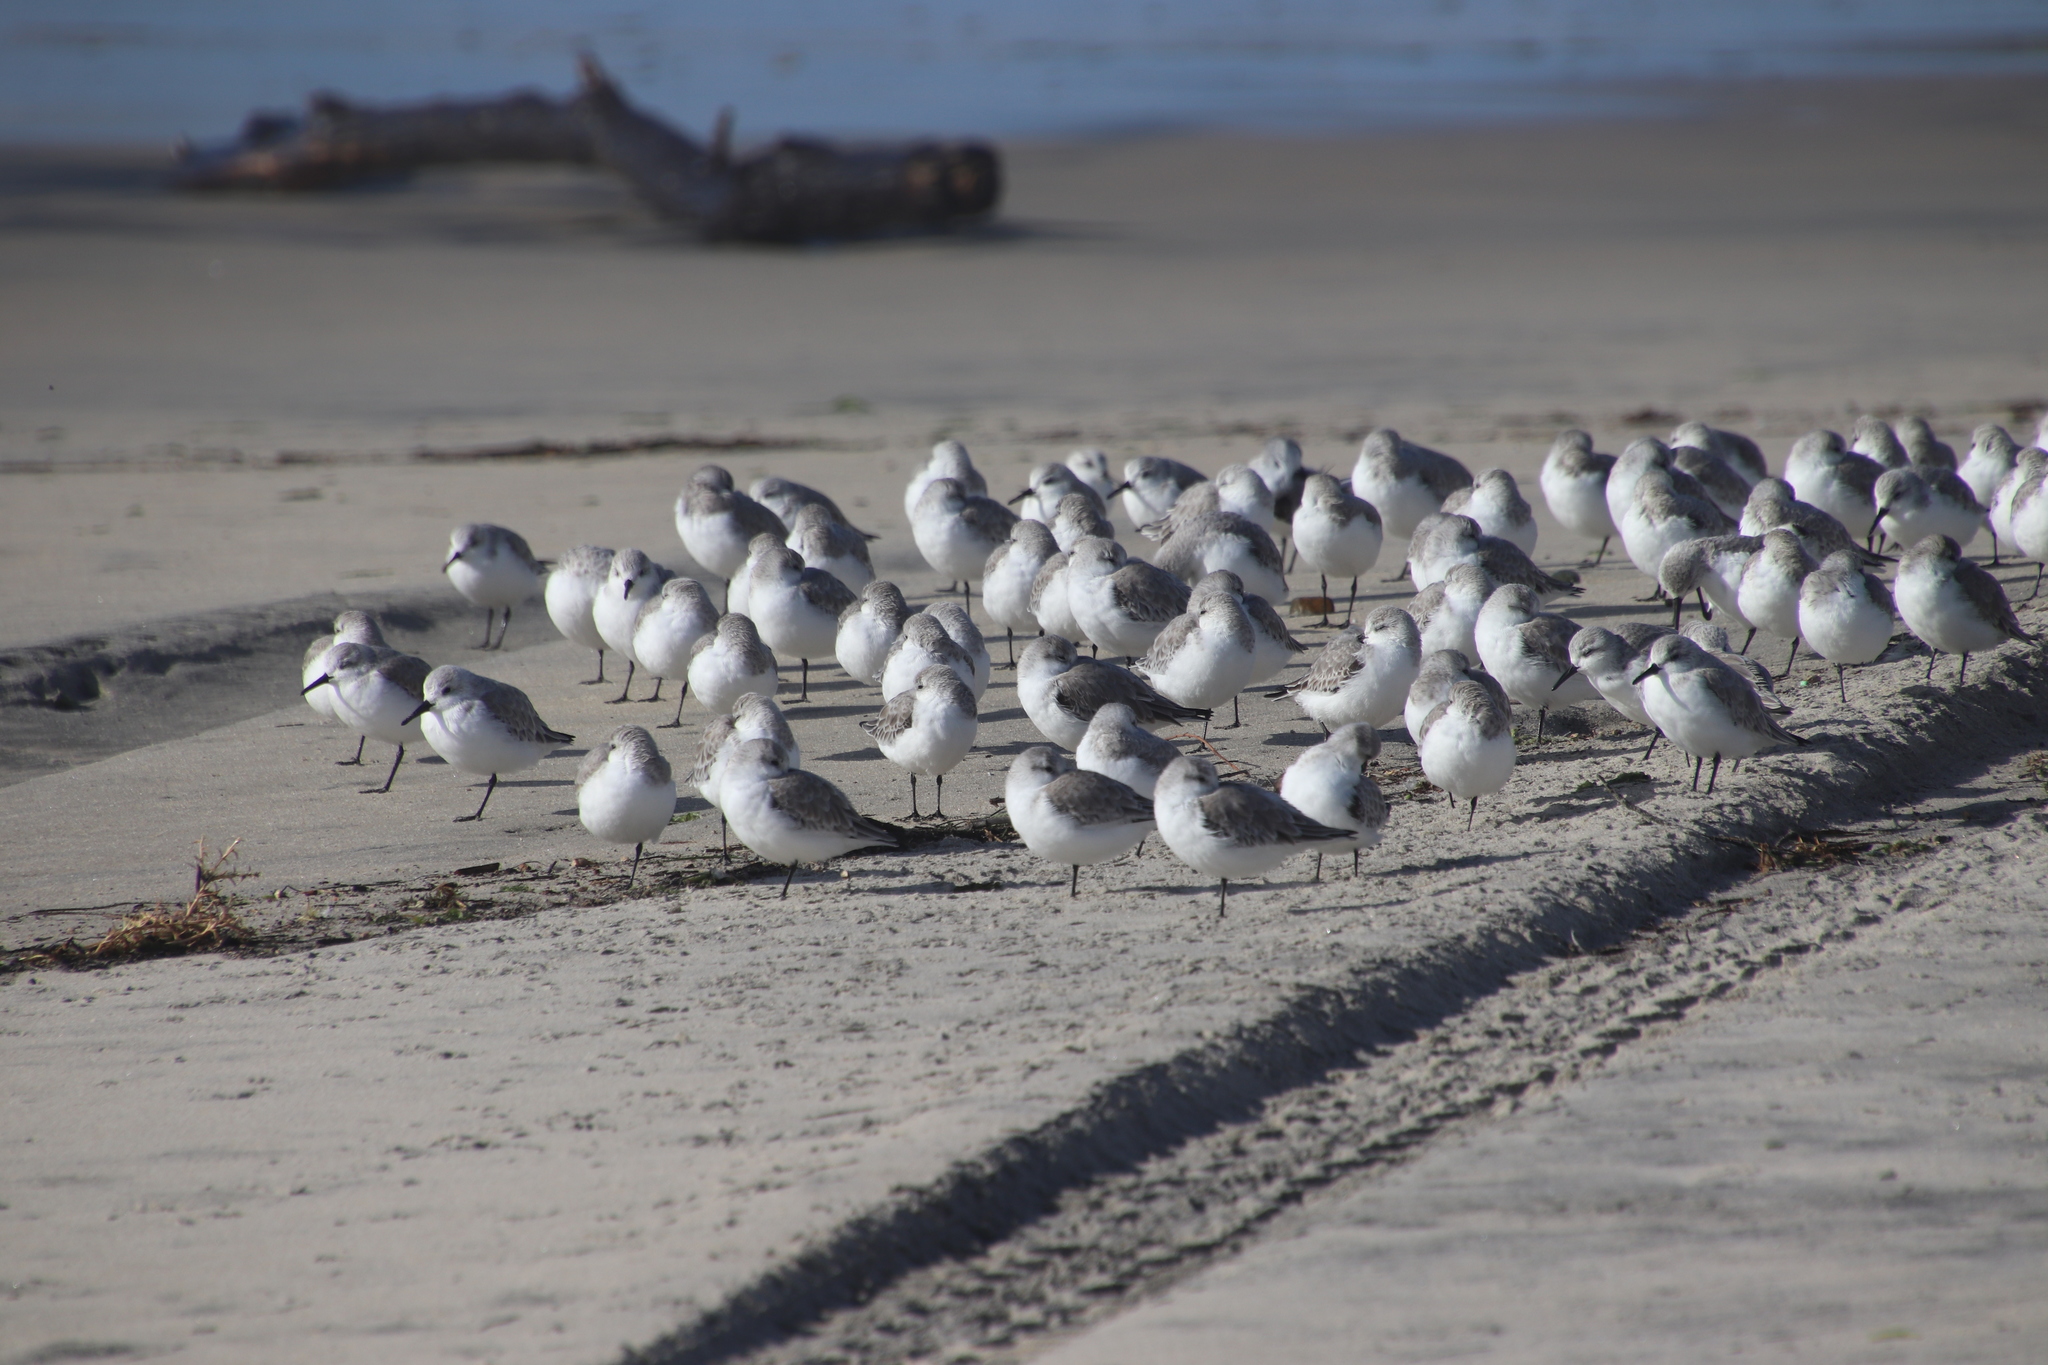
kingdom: Animalia
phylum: Chordata
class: Aves
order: Charadriiformes
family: Scolopacidae
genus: Calidris
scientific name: Calidris alba
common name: Sanderling
